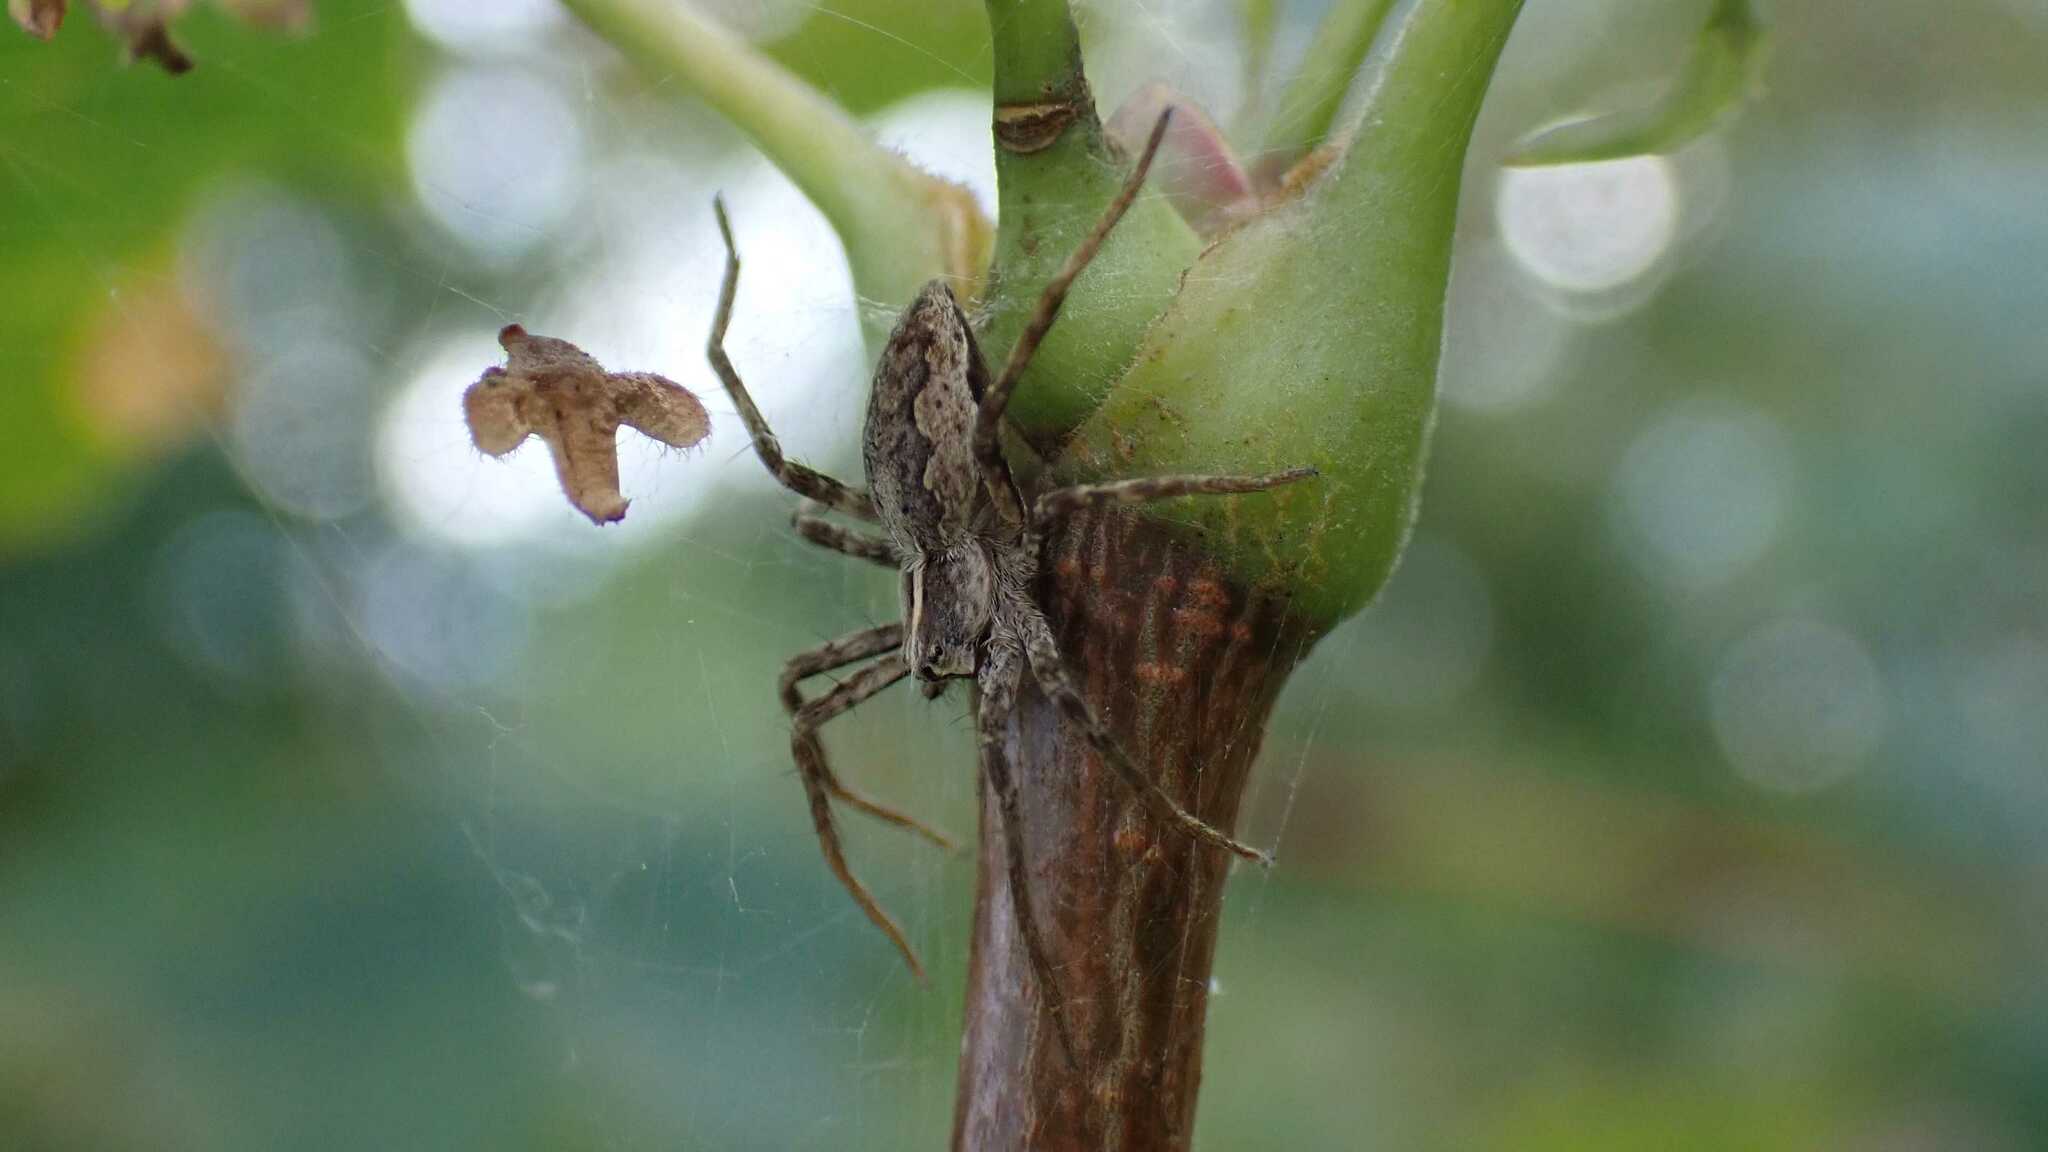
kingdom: Animalia
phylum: Arthropoda
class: Arachnida
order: Araneae
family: Pisauridae
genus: Pisaura
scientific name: Pisaura mirabilis
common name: Tent spider
